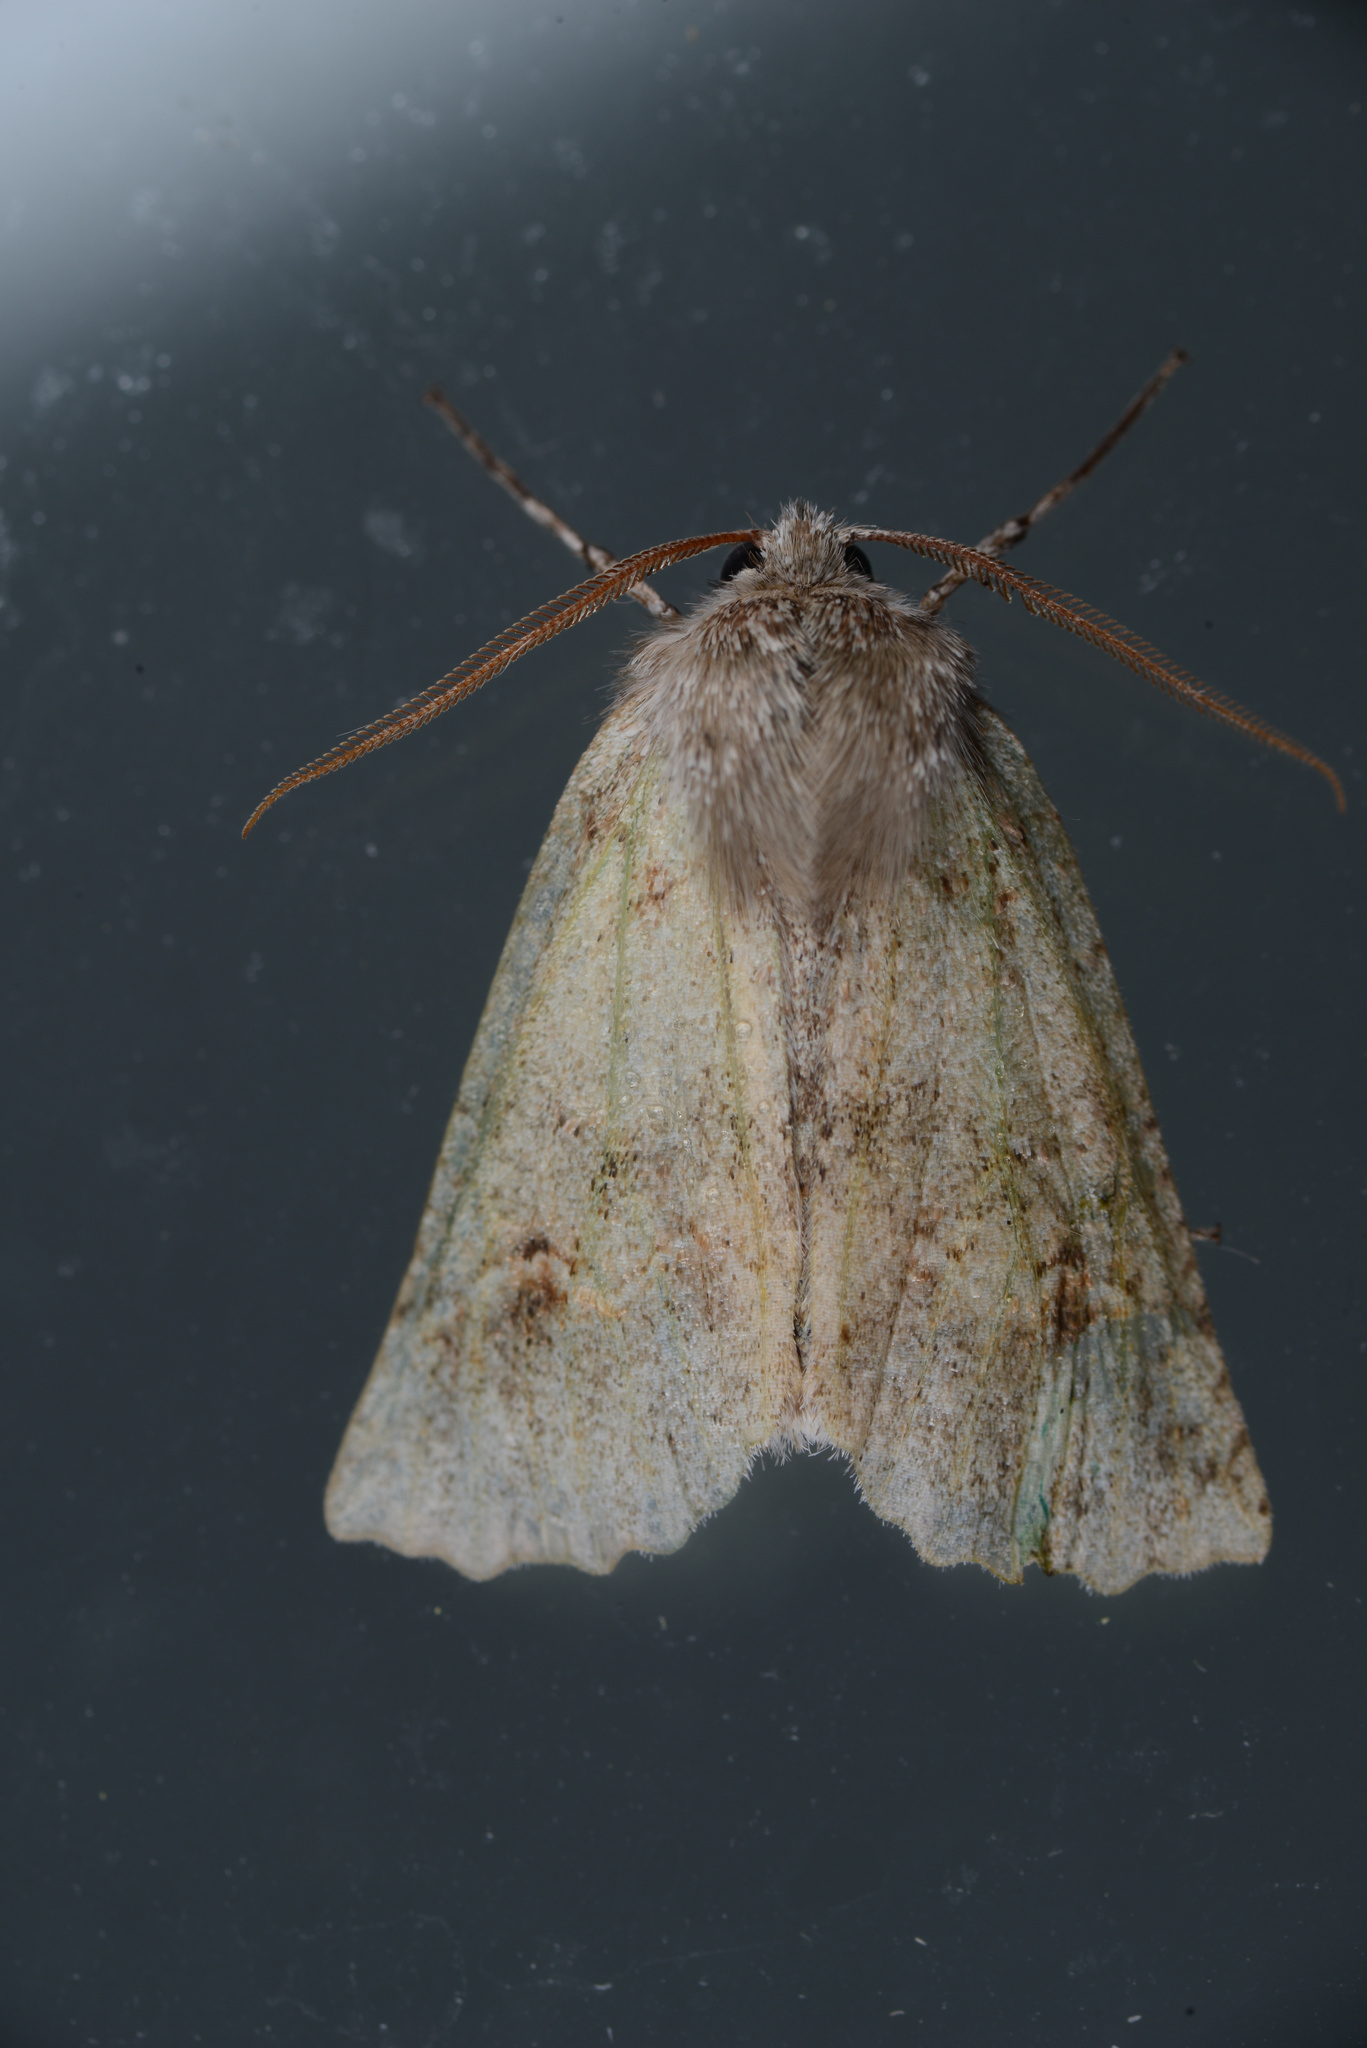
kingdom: Animalia
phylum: Arthropoda
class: Insecta
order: Lepidoptera
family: Geometridae
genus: Declana
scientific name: Declana floccosa
